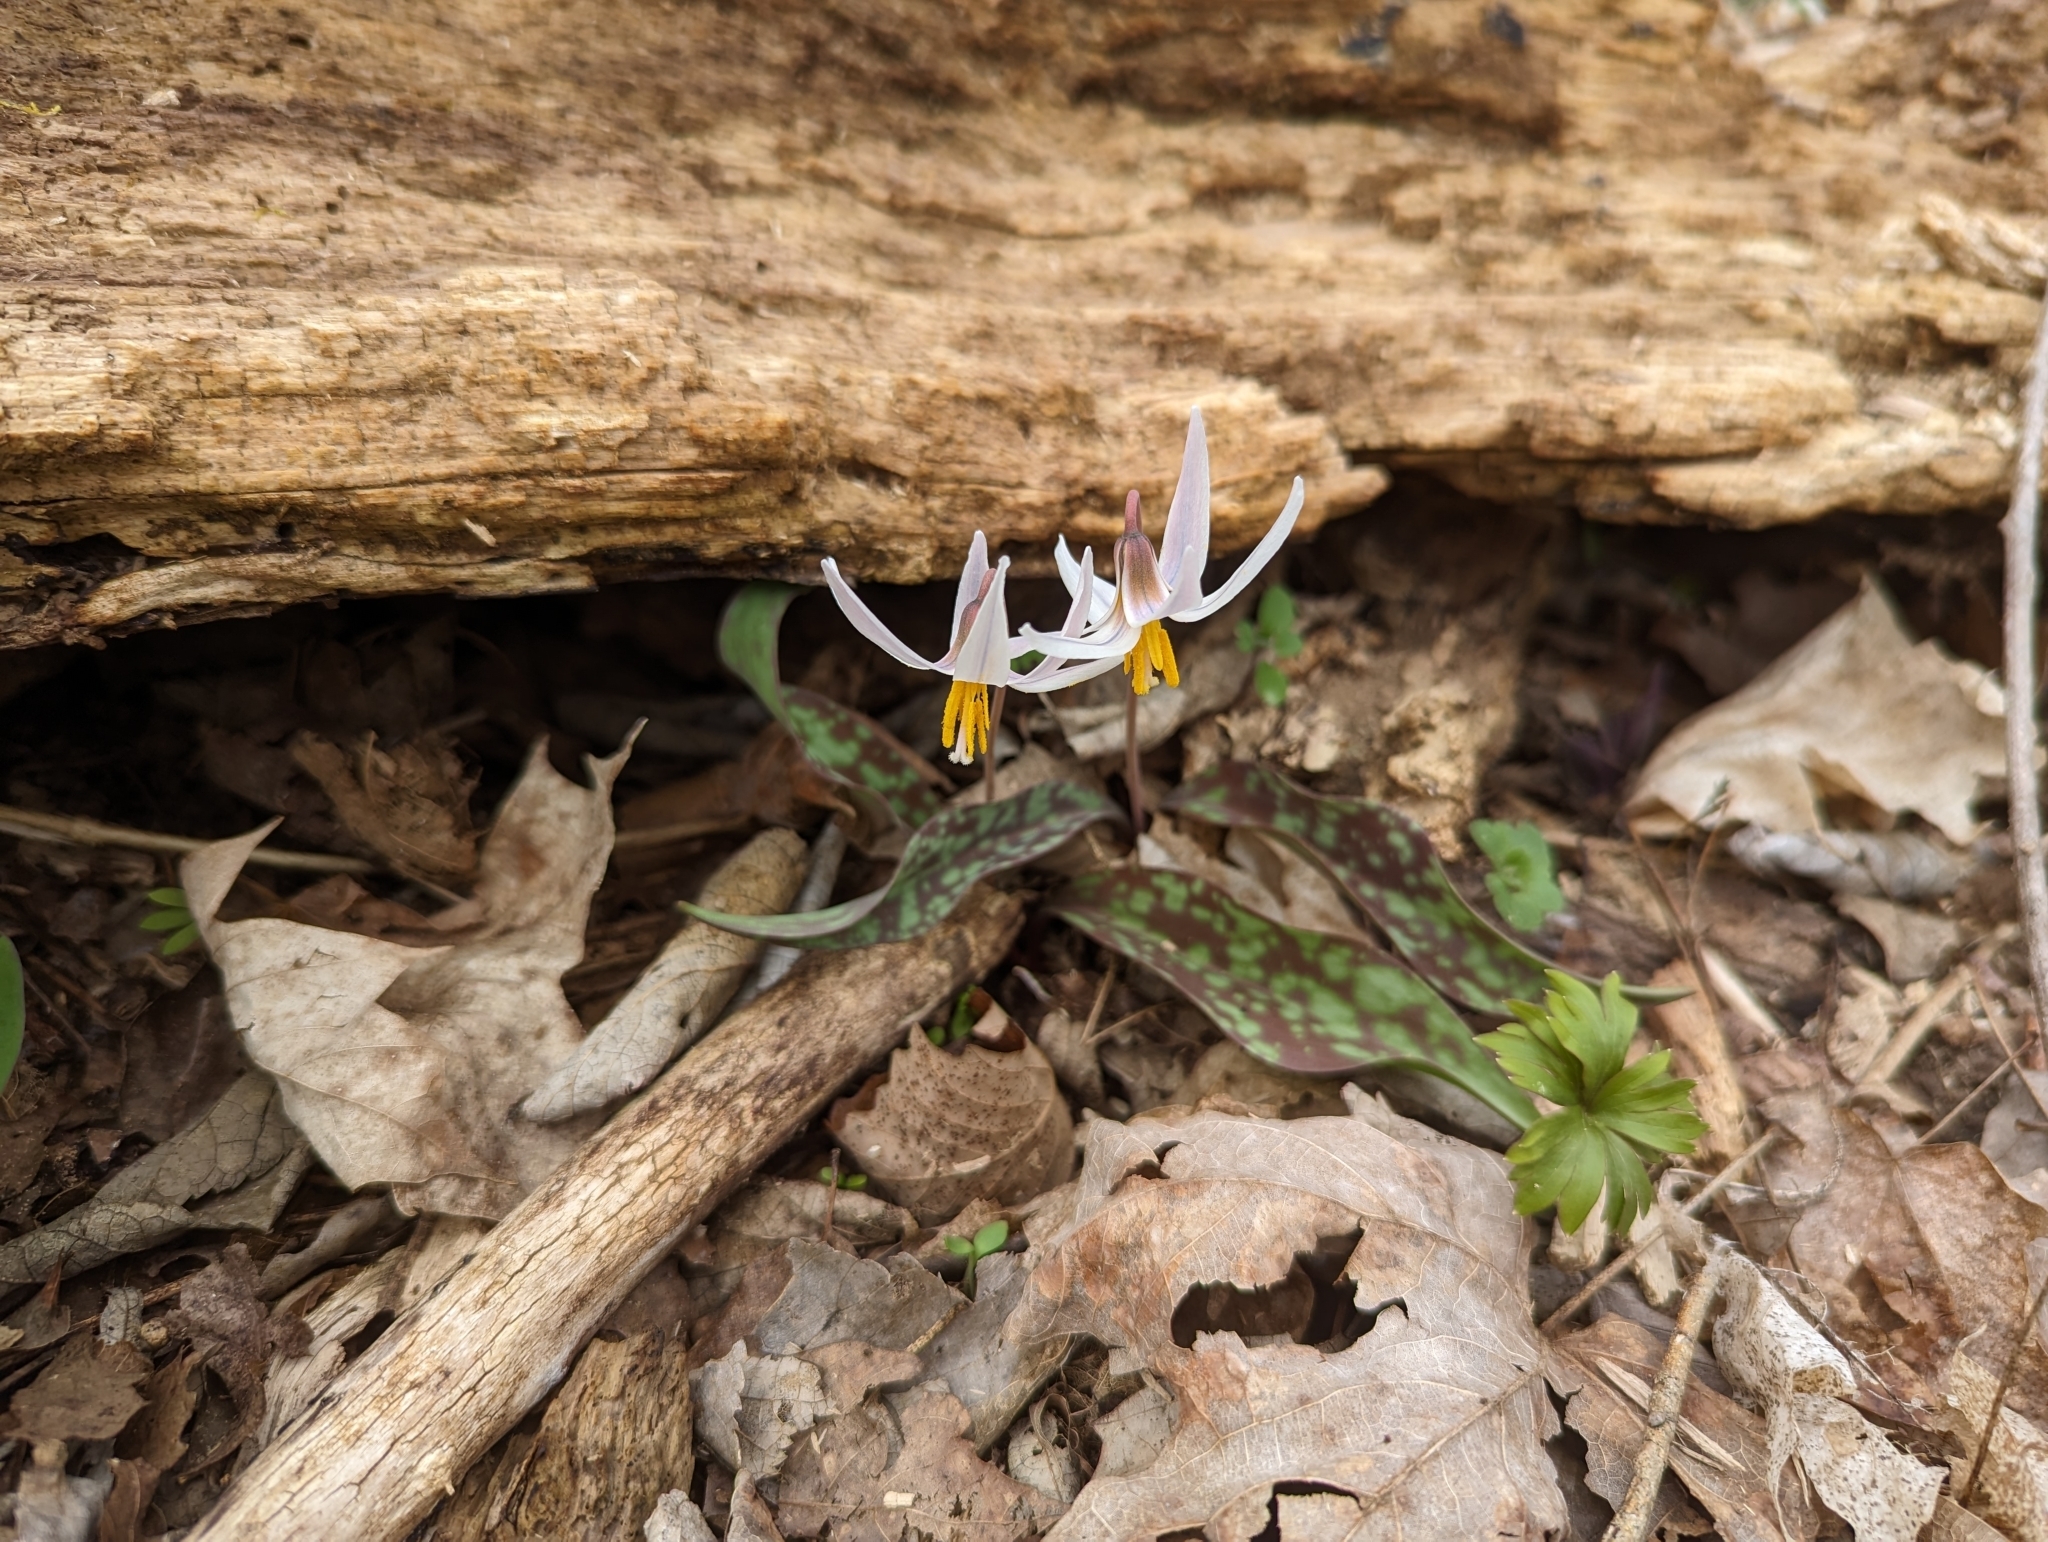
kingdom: Plantae
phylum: Tracheophyta
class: Liliopsida
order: Liliales
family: Liliaceae
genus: Erythronium
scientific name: Erythronium albidum
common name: White trout-lily
